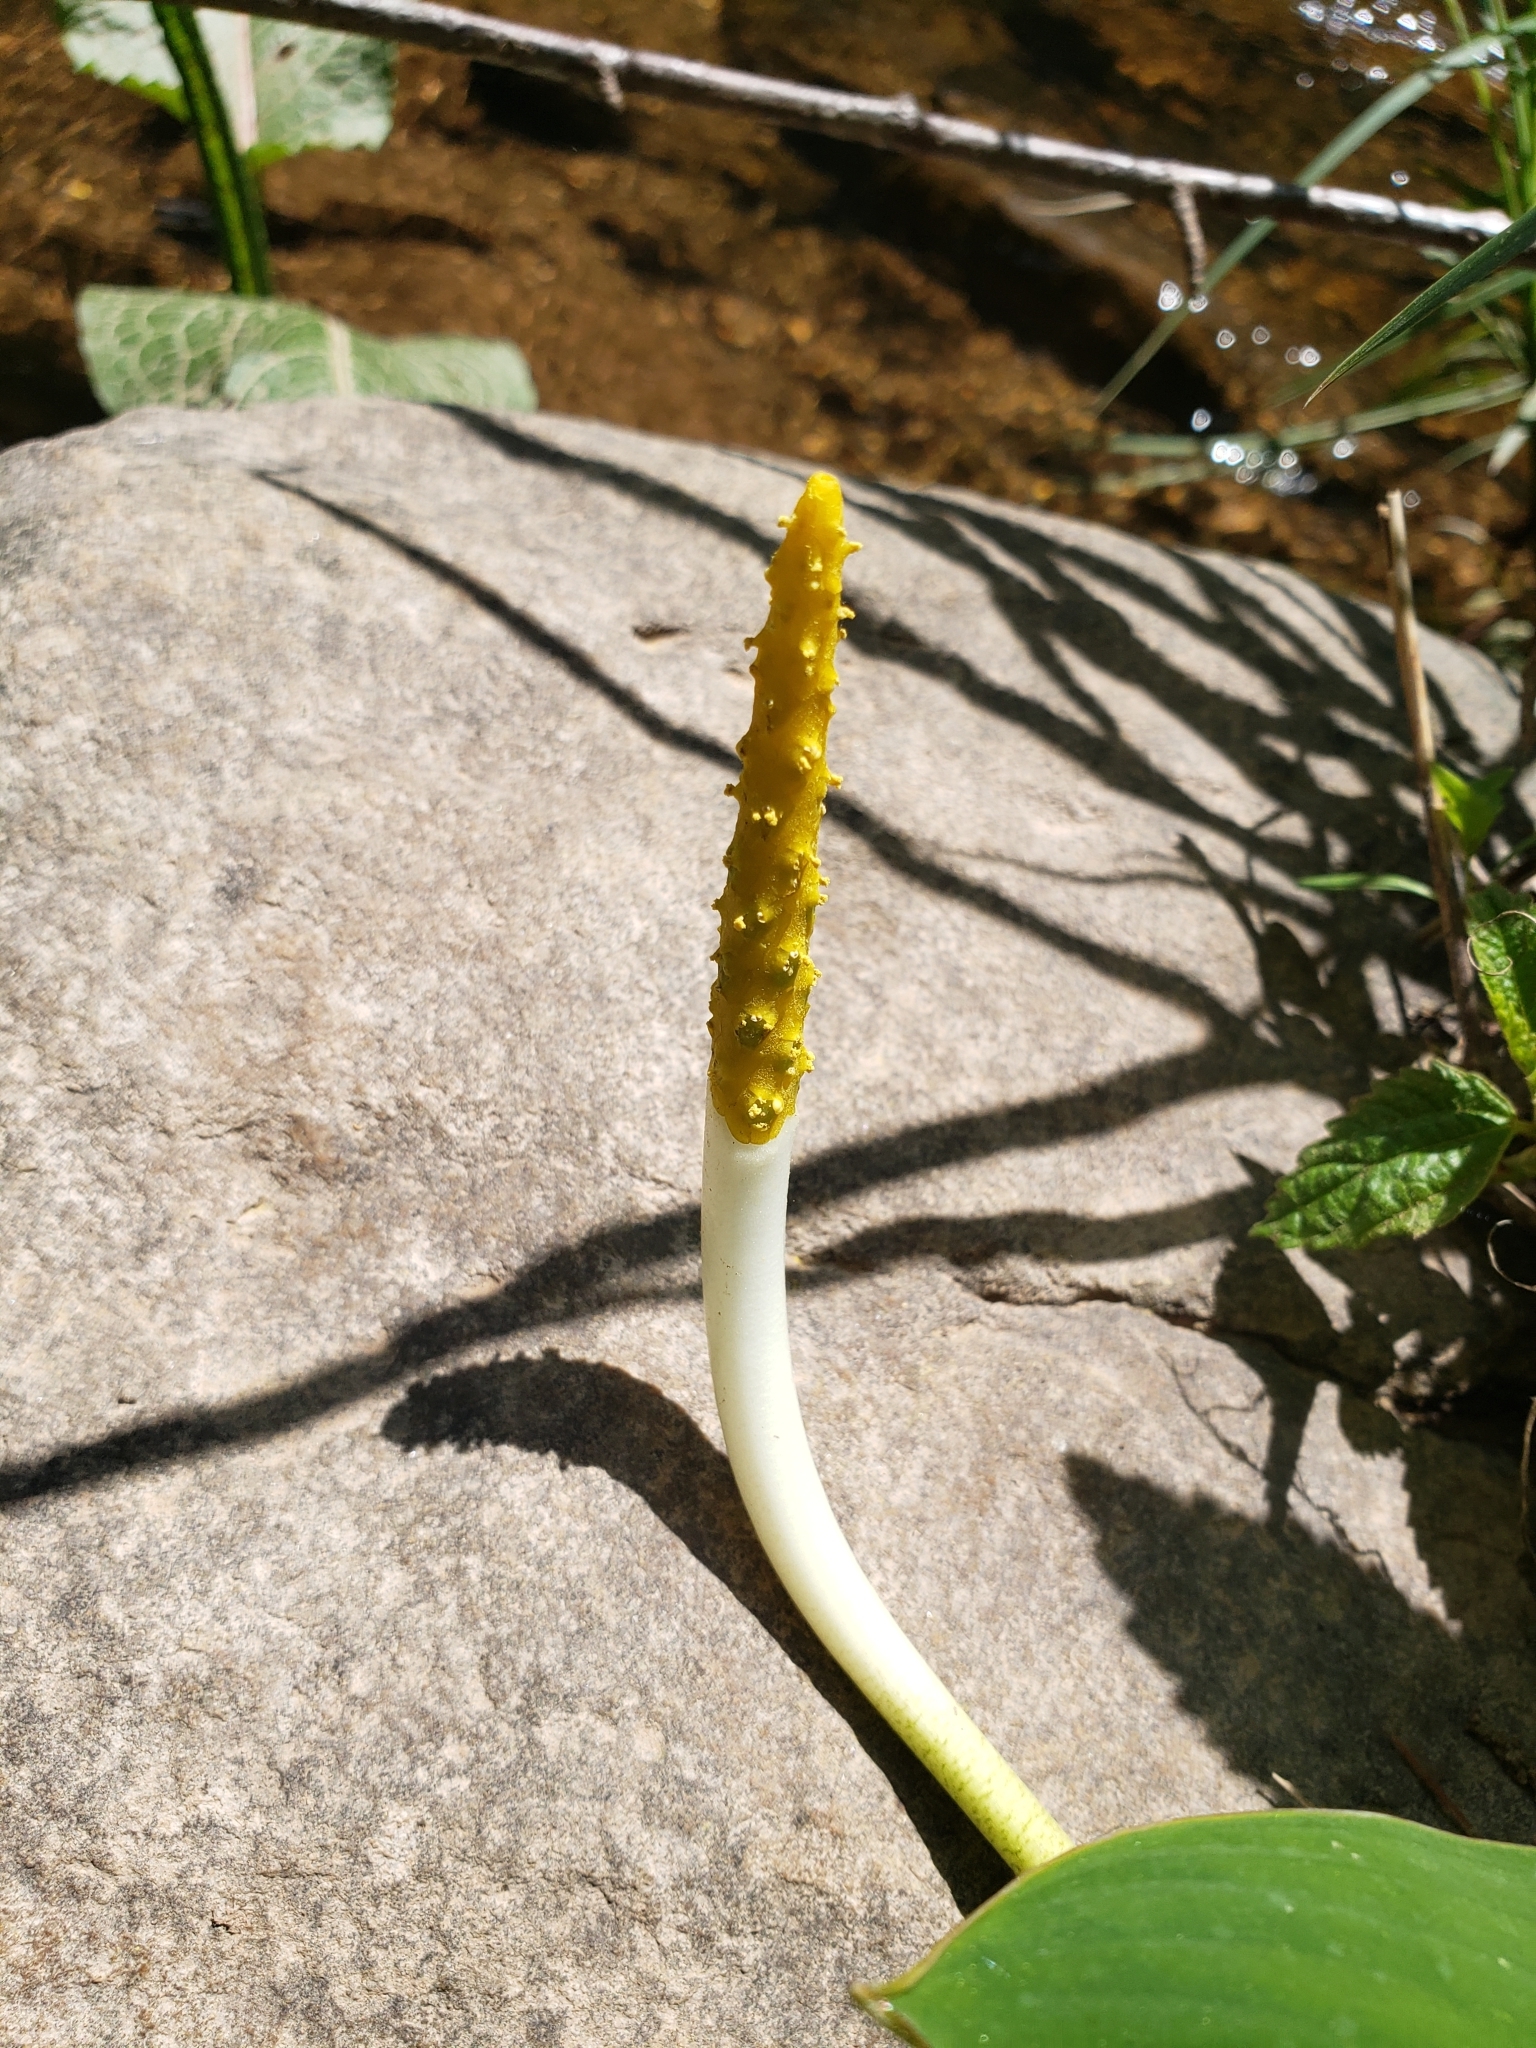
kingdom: Plantae
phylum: Tracheophyta
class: Liliopsida
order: Alismatales
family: Araceae
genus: Orontium
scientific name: Orontium aquaticum
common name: Golden-club
